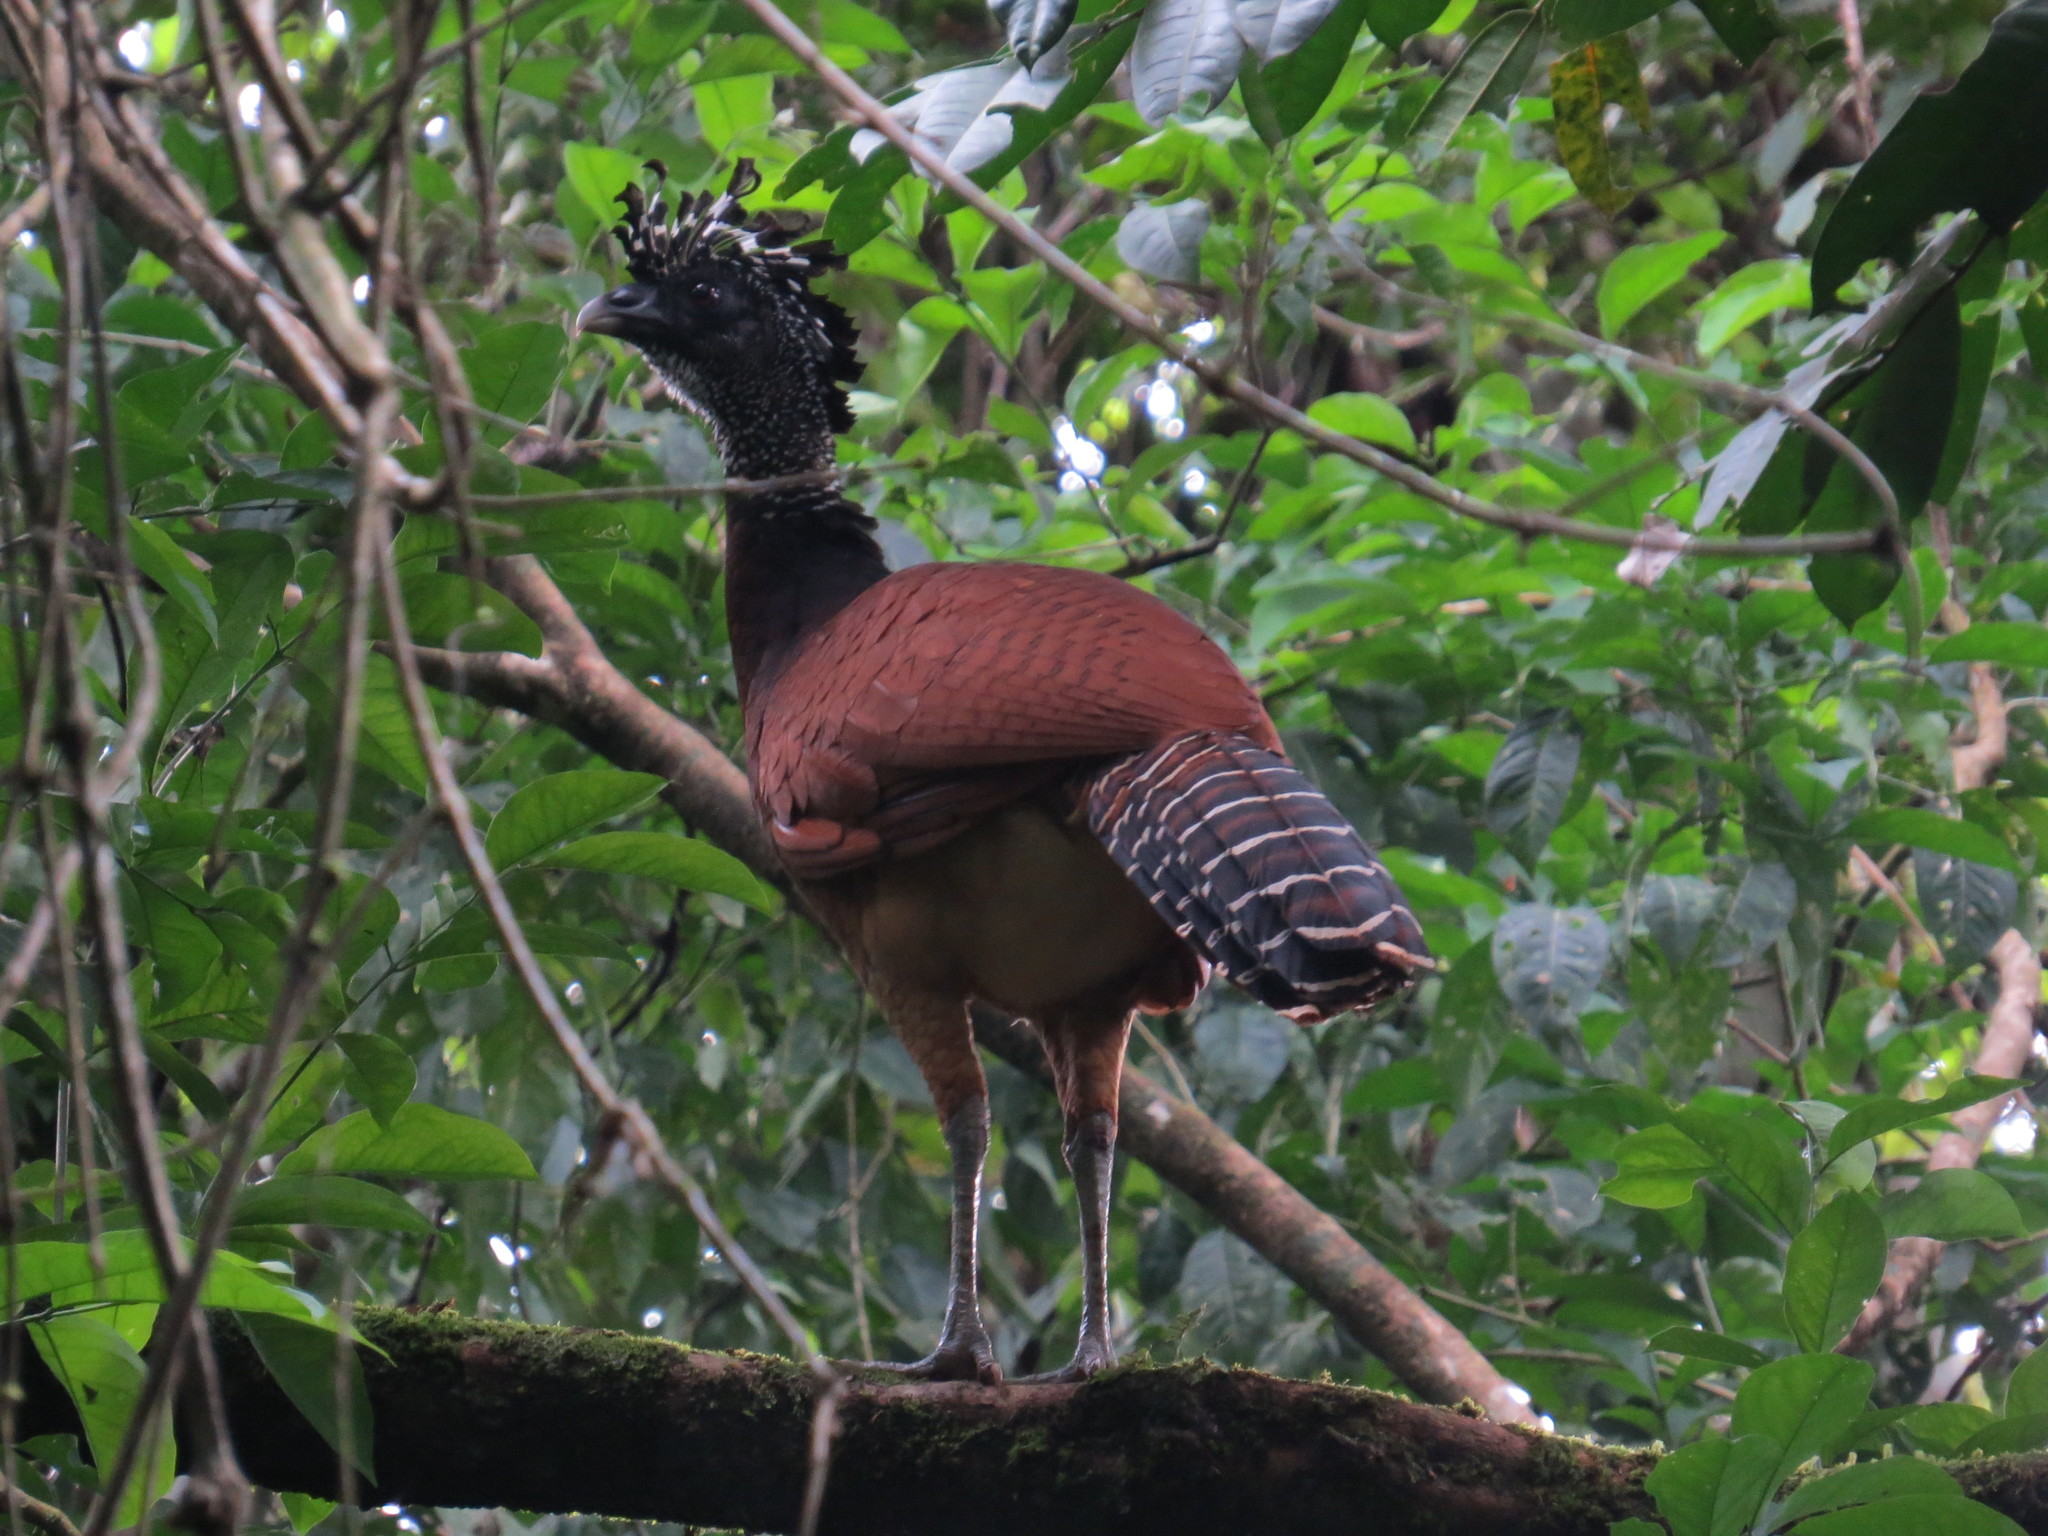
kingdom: Animalia
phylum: Chordata
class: Aves
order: Galliformes
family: Cracidae
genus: Crax
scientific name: Crax rubra
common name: Great curassow
